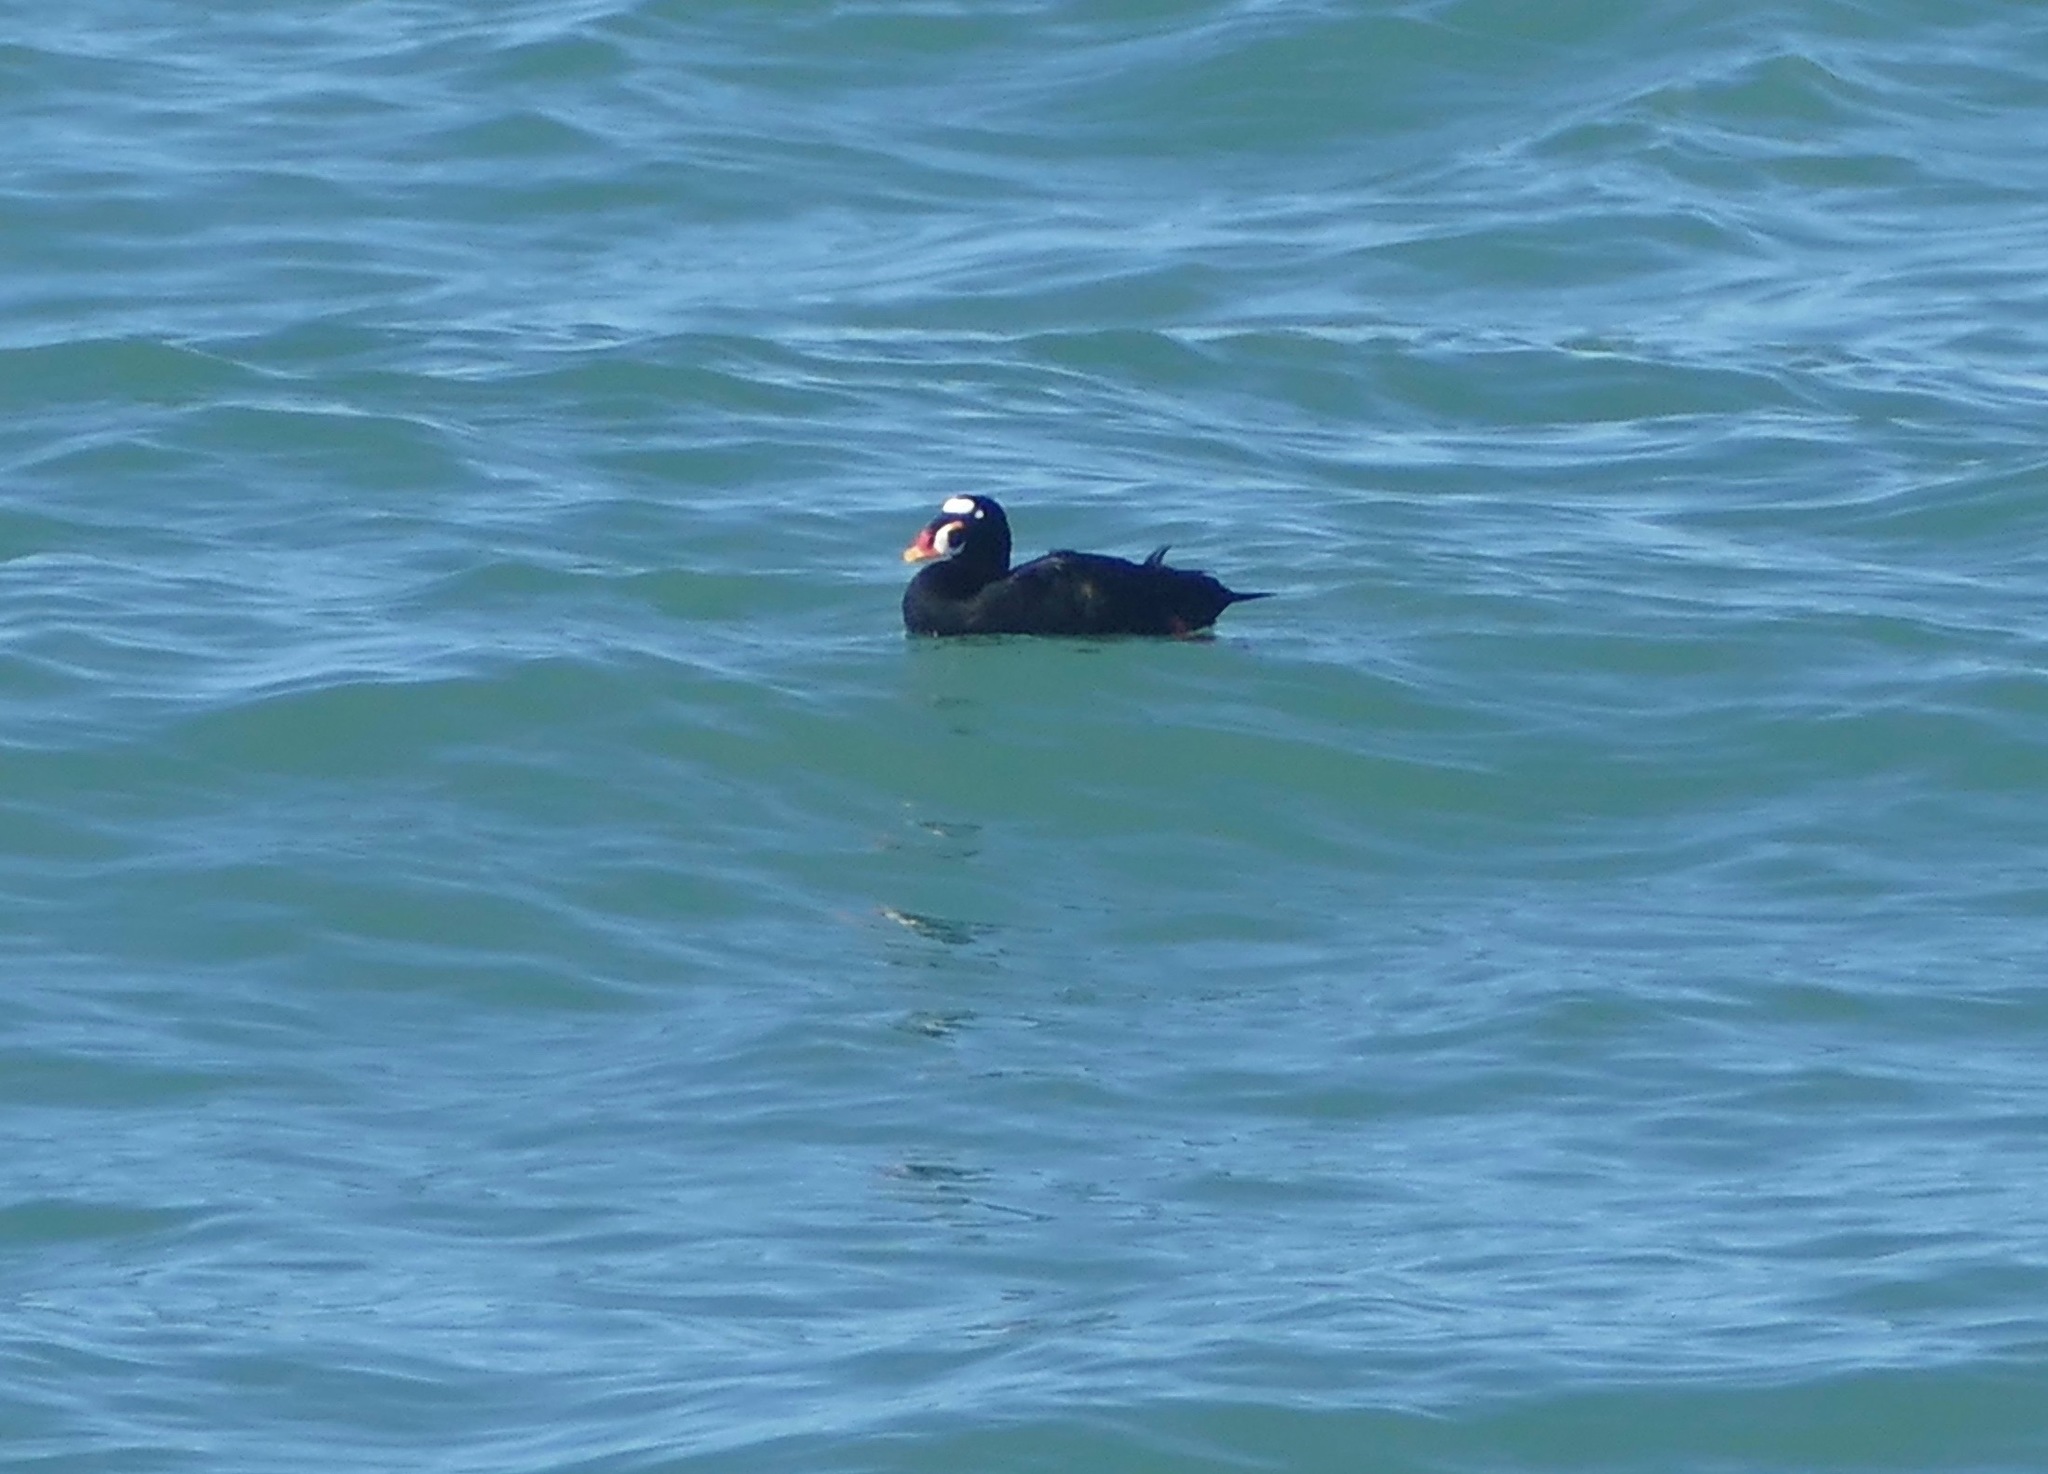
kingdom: Animalia
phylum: Chordata
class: Aves
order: Anseriformes
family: Anatidae
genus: Melanitta
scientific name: Melanitta perspicillata
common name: Surf scoter
